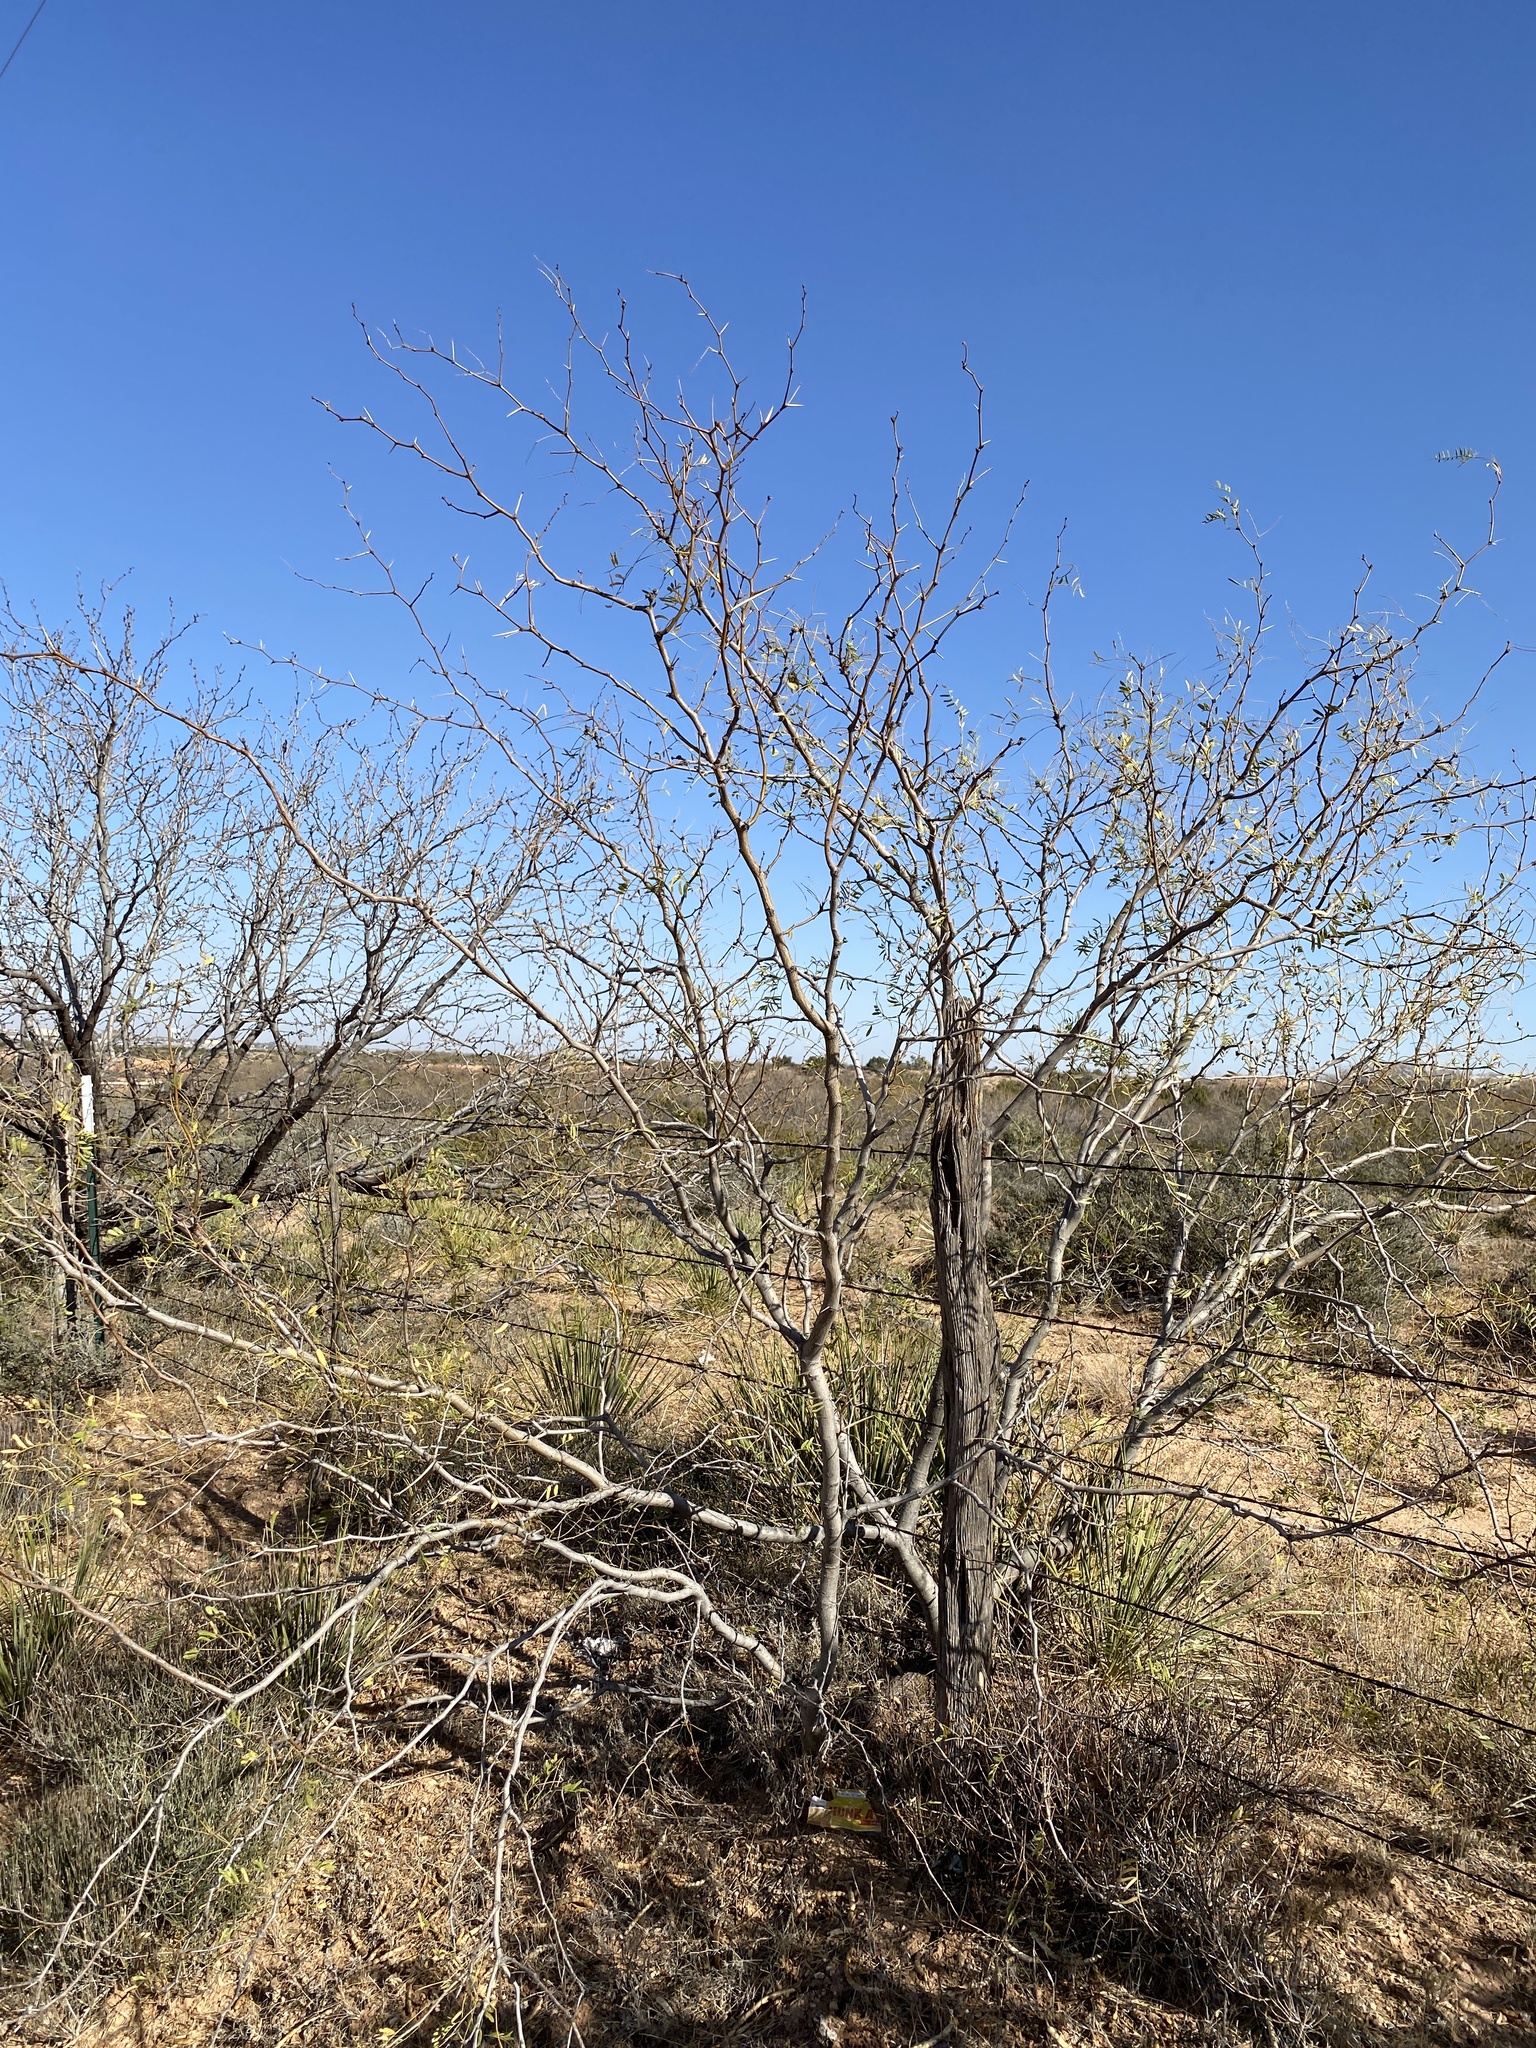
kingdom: Plantae
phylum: Tracheophyta
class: Magnoliopsida
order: Fabales
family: Fabaceae
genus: Prosopis
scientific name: Prosopis glandulosa
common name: Honey mesquite
